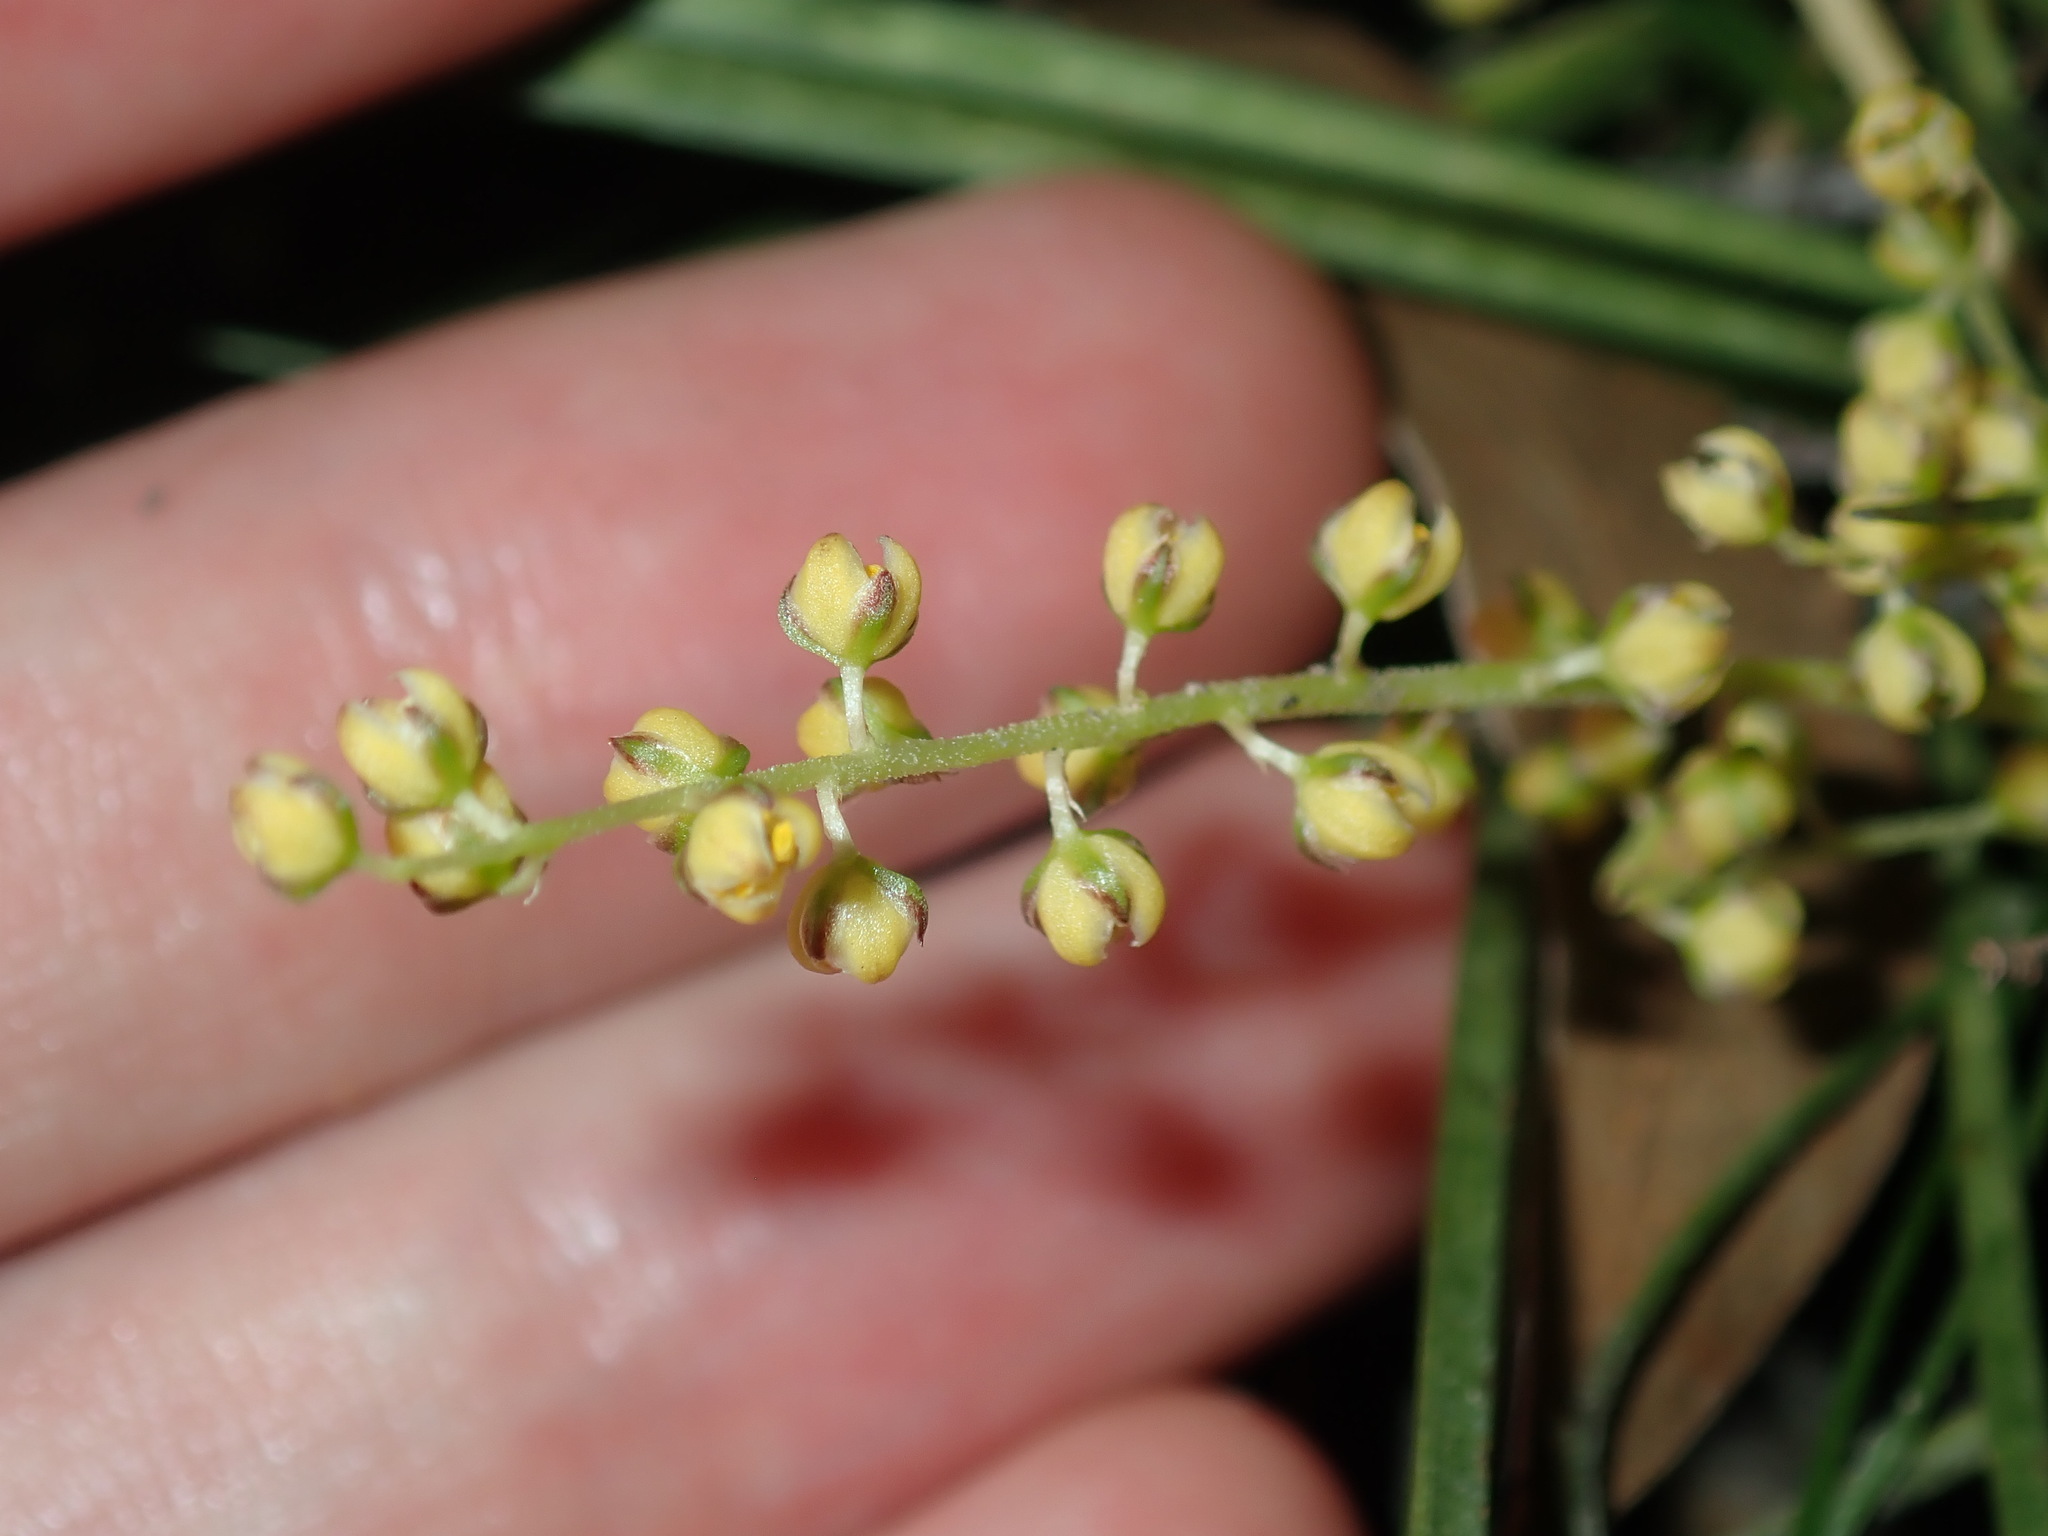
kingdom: Plantae
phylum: Tracheophyta
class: Liliopsida
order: Asparagales
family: Asparagaceae
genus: Lomandra
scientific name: Lomandra filiformis
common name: Wattle mat-rush
